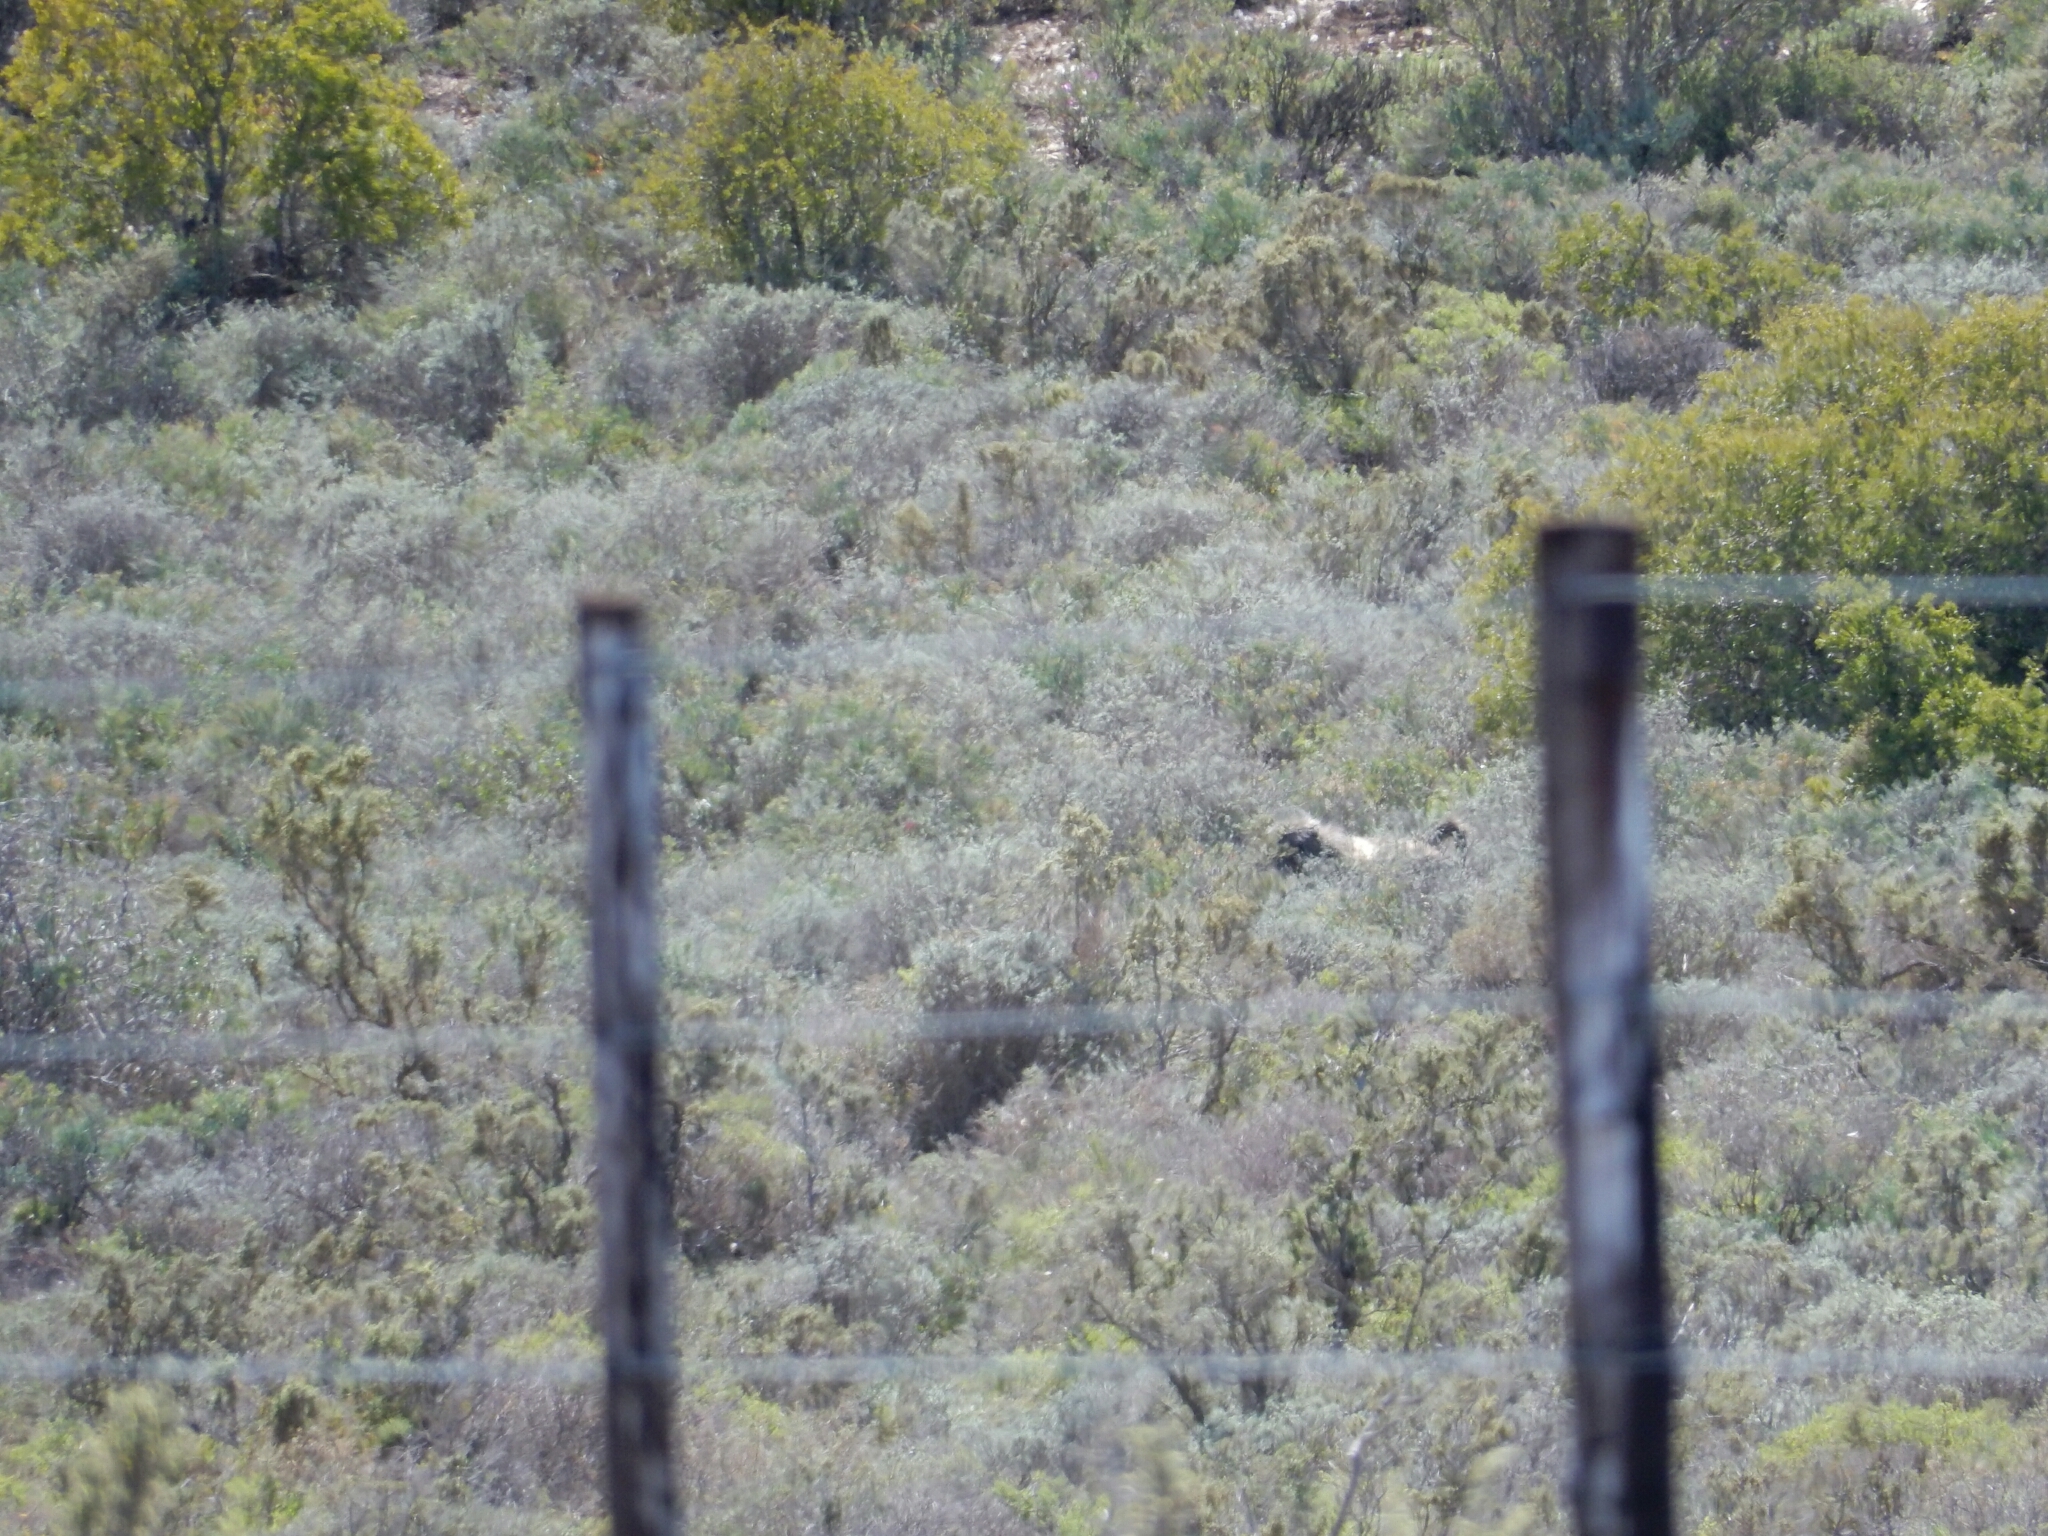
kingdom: Animalia
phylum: Chordata
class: Mammalia
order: Primates
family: Cercopithecidae
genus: Papio
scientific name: Papio ursinus
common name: Chacma baboon
